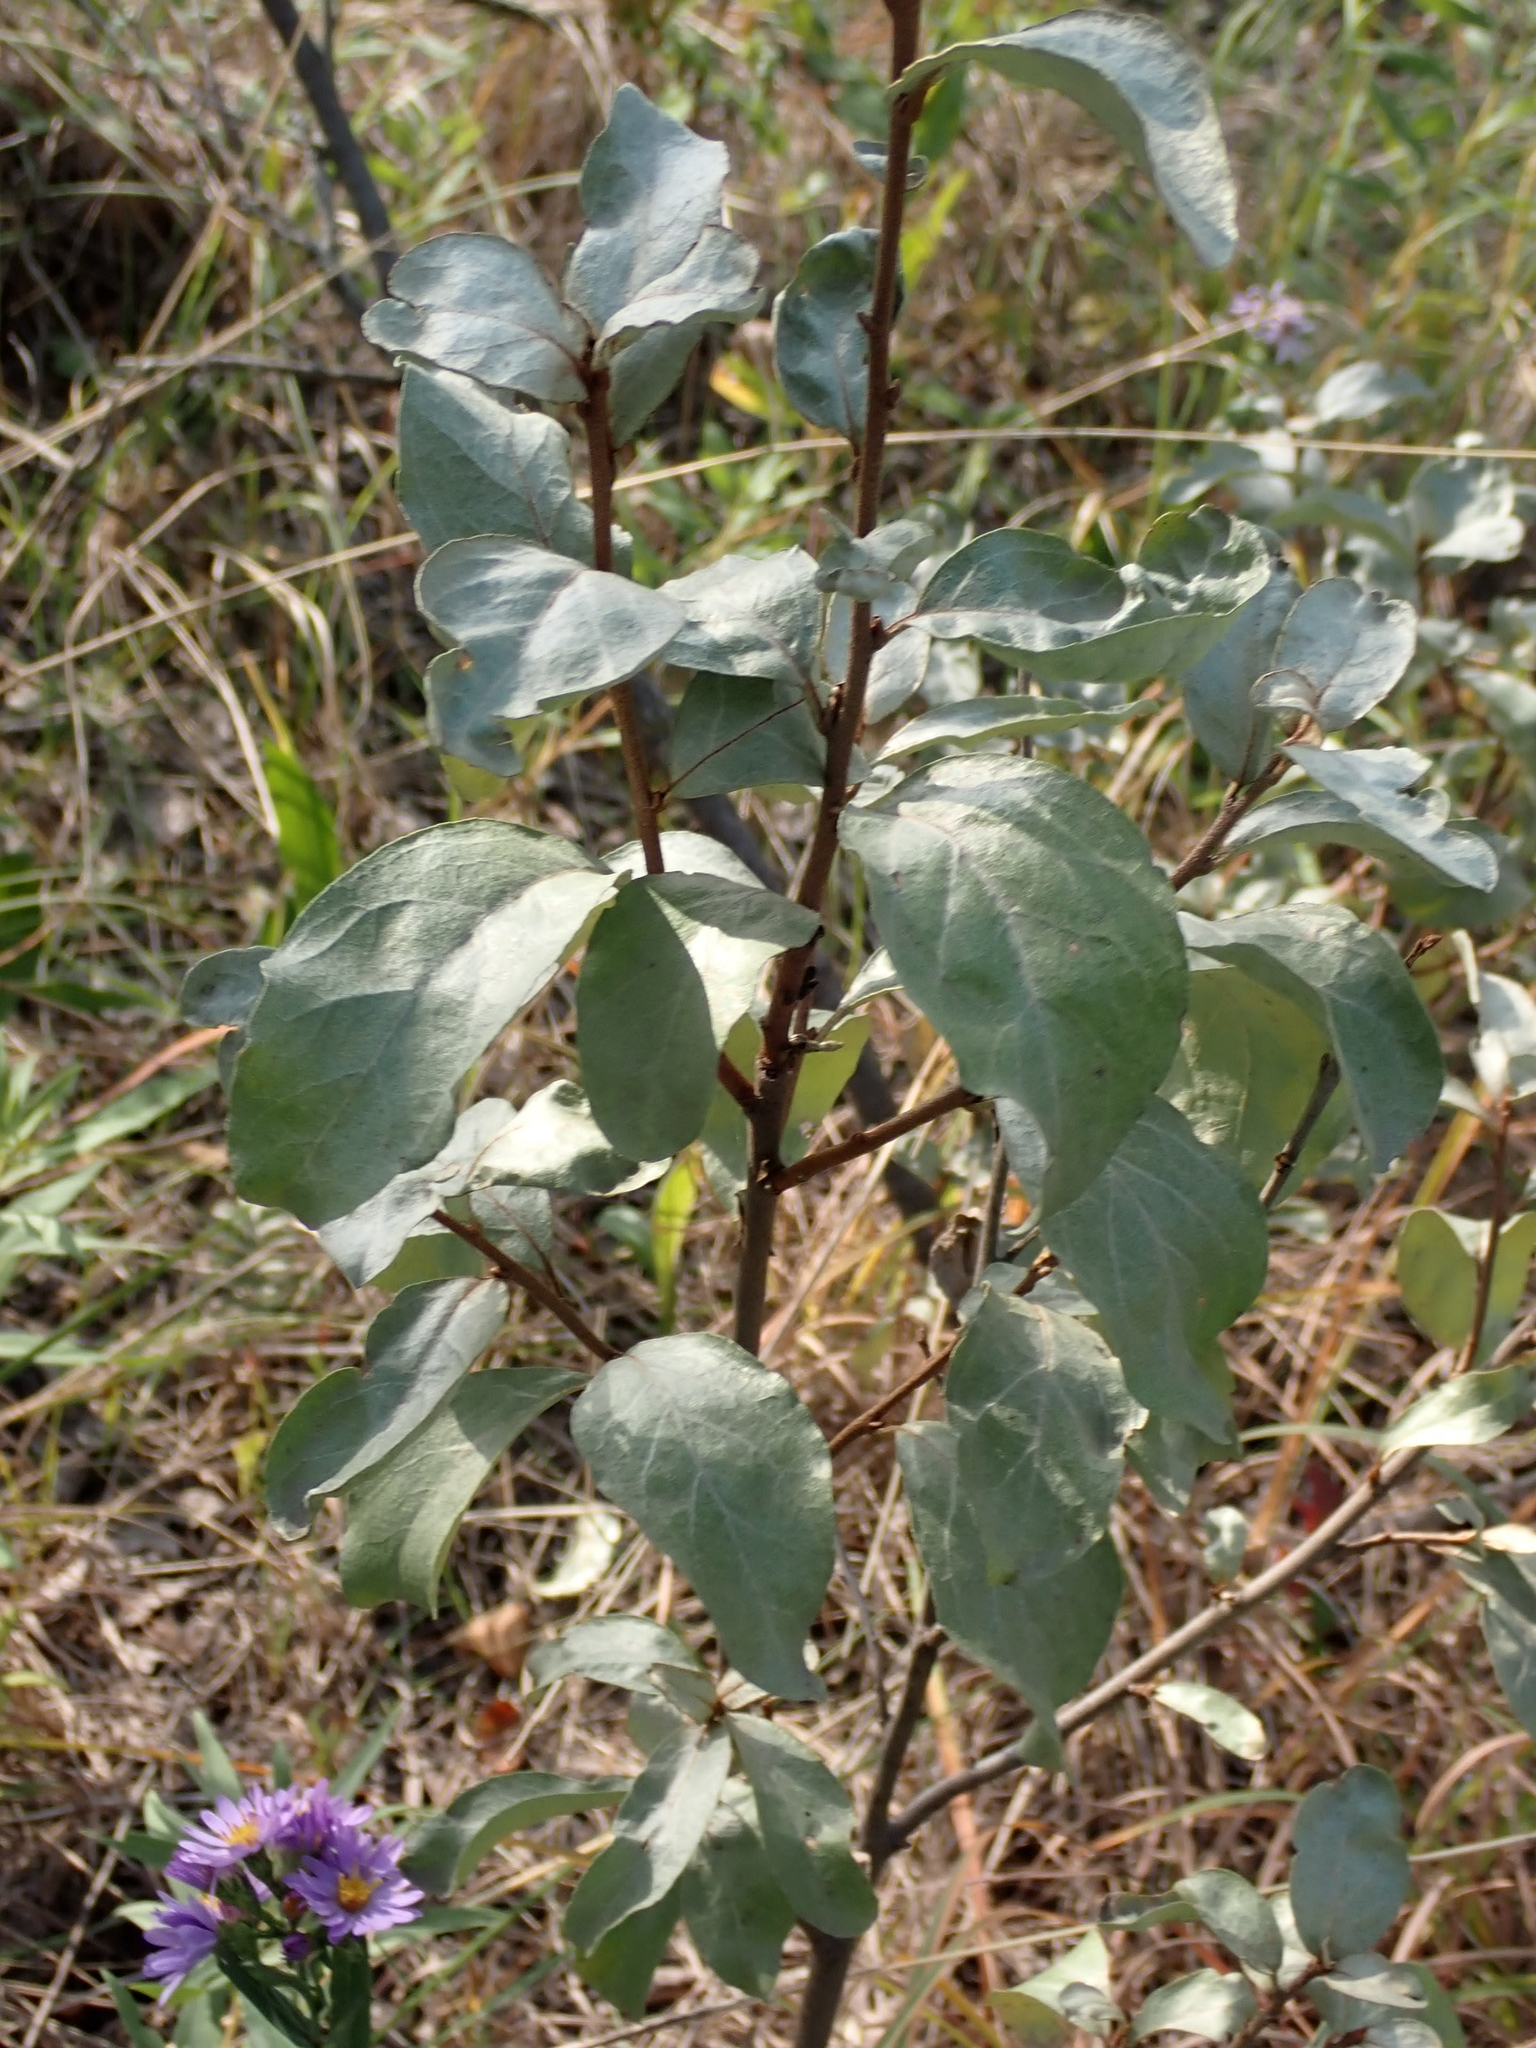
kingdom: Plantae
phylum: Tracheophyta
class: Magnoliopsida
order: Rosales
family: Elaeagnaceae
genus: Elaeagnus
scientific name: Elaeagnus commutata
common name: Silverberry
